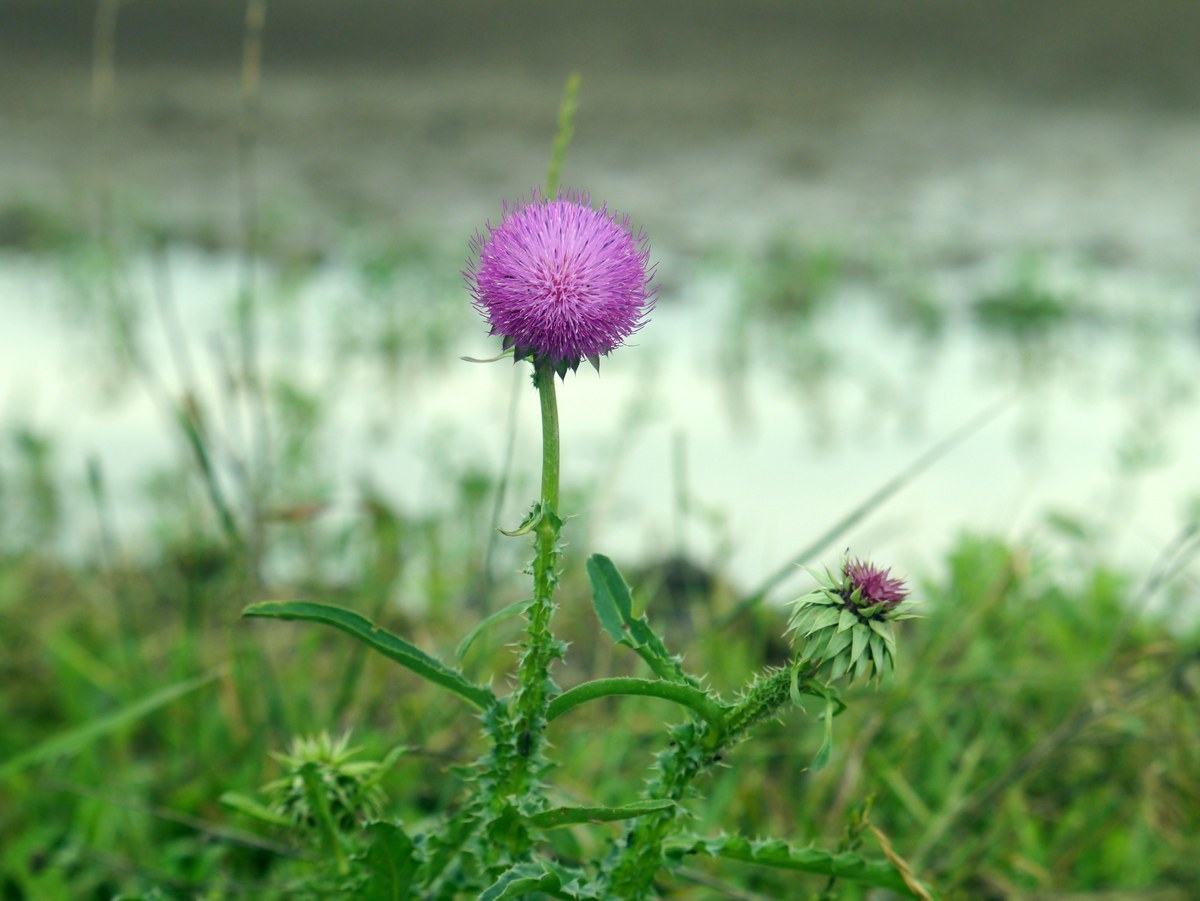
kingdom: Plantae
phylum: Tracheophyta
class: Magnoliopsida
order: Asterales
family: Asteraceae
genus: Carduus
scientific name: Carduus nutans
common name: Musk thistle
